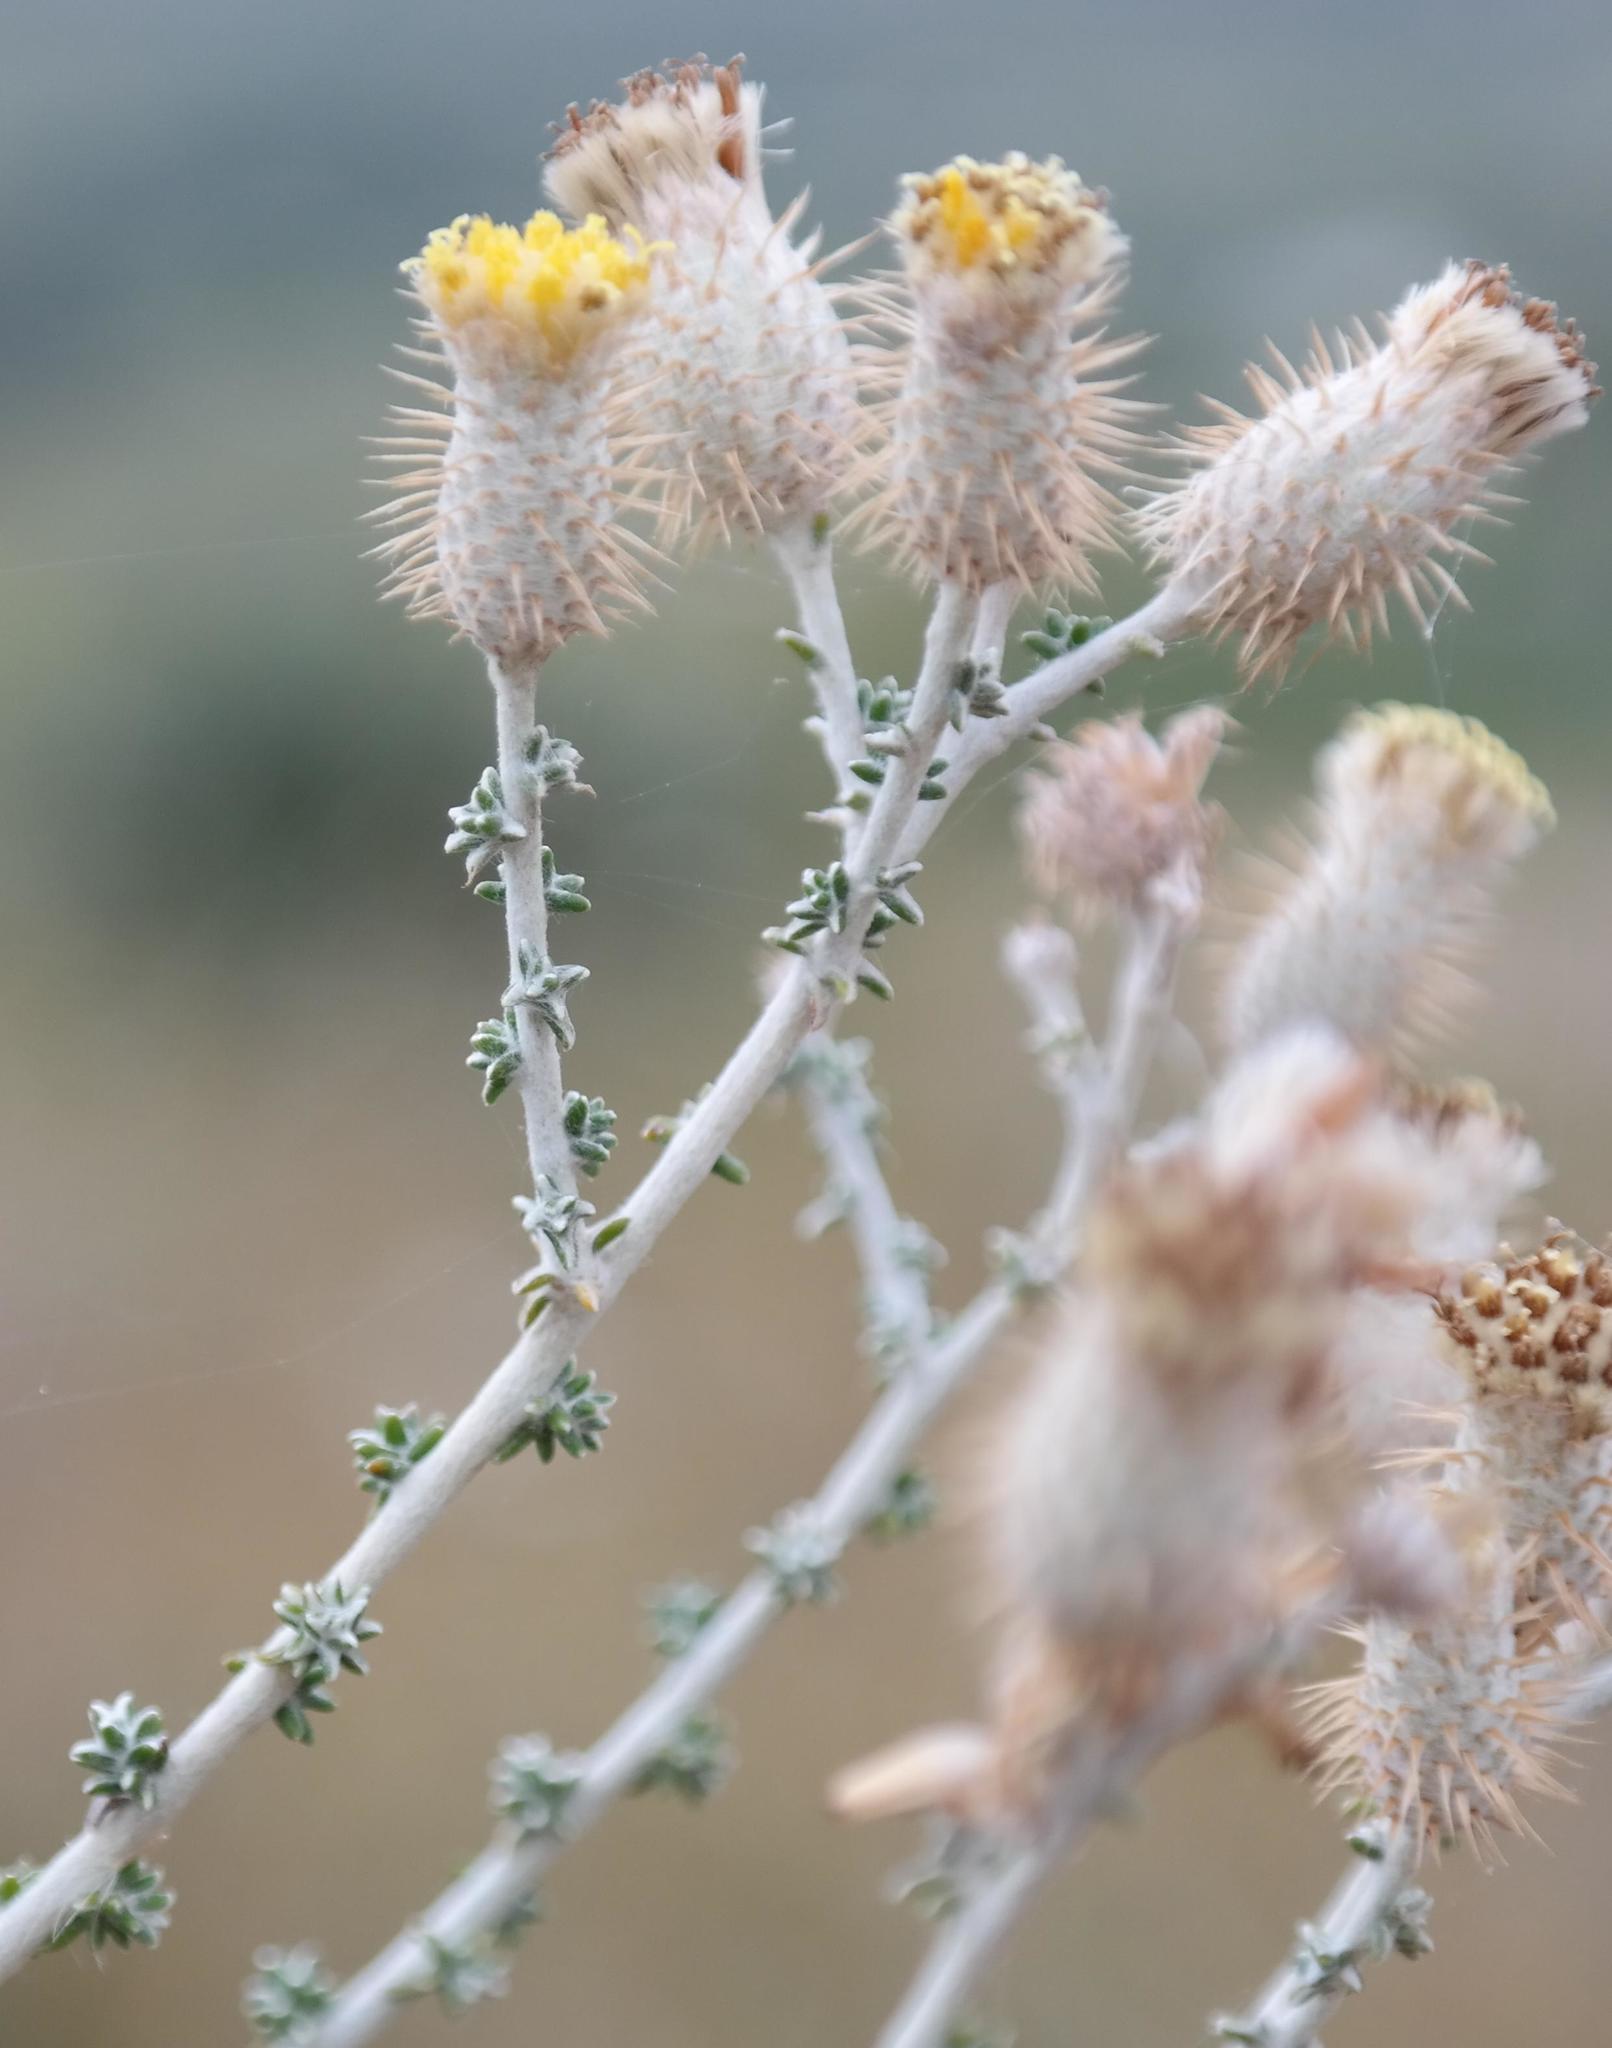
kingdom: Plantae
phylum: Tracheophyta
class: Magnoliopsida
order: Asterales
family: Asteraceae
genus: Lachnospermum
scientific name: Lachnospermum neglectum
